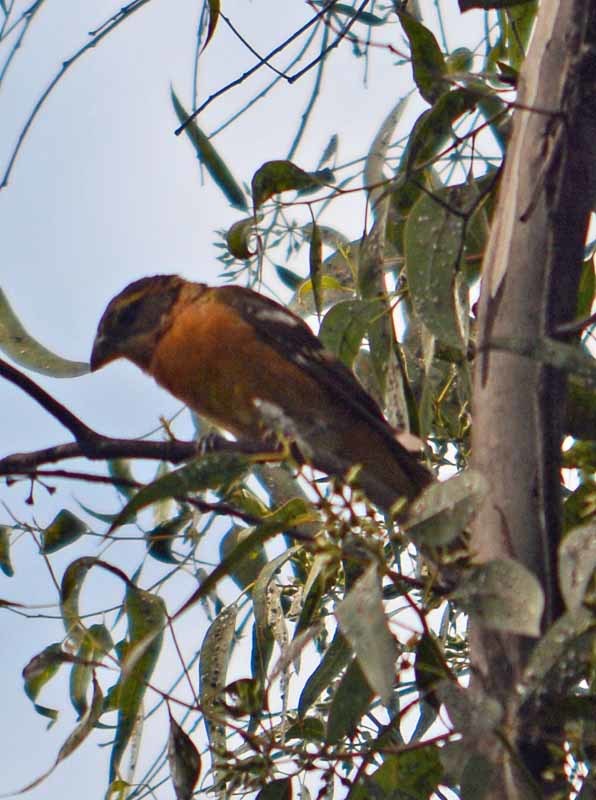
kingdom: Animalia
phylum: Chordata
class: Aves
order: Passeriformes
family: Cardinalidae
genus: Pheucticus
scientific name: Pheucticus melanocephalus
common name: Black-headed grosbeak
